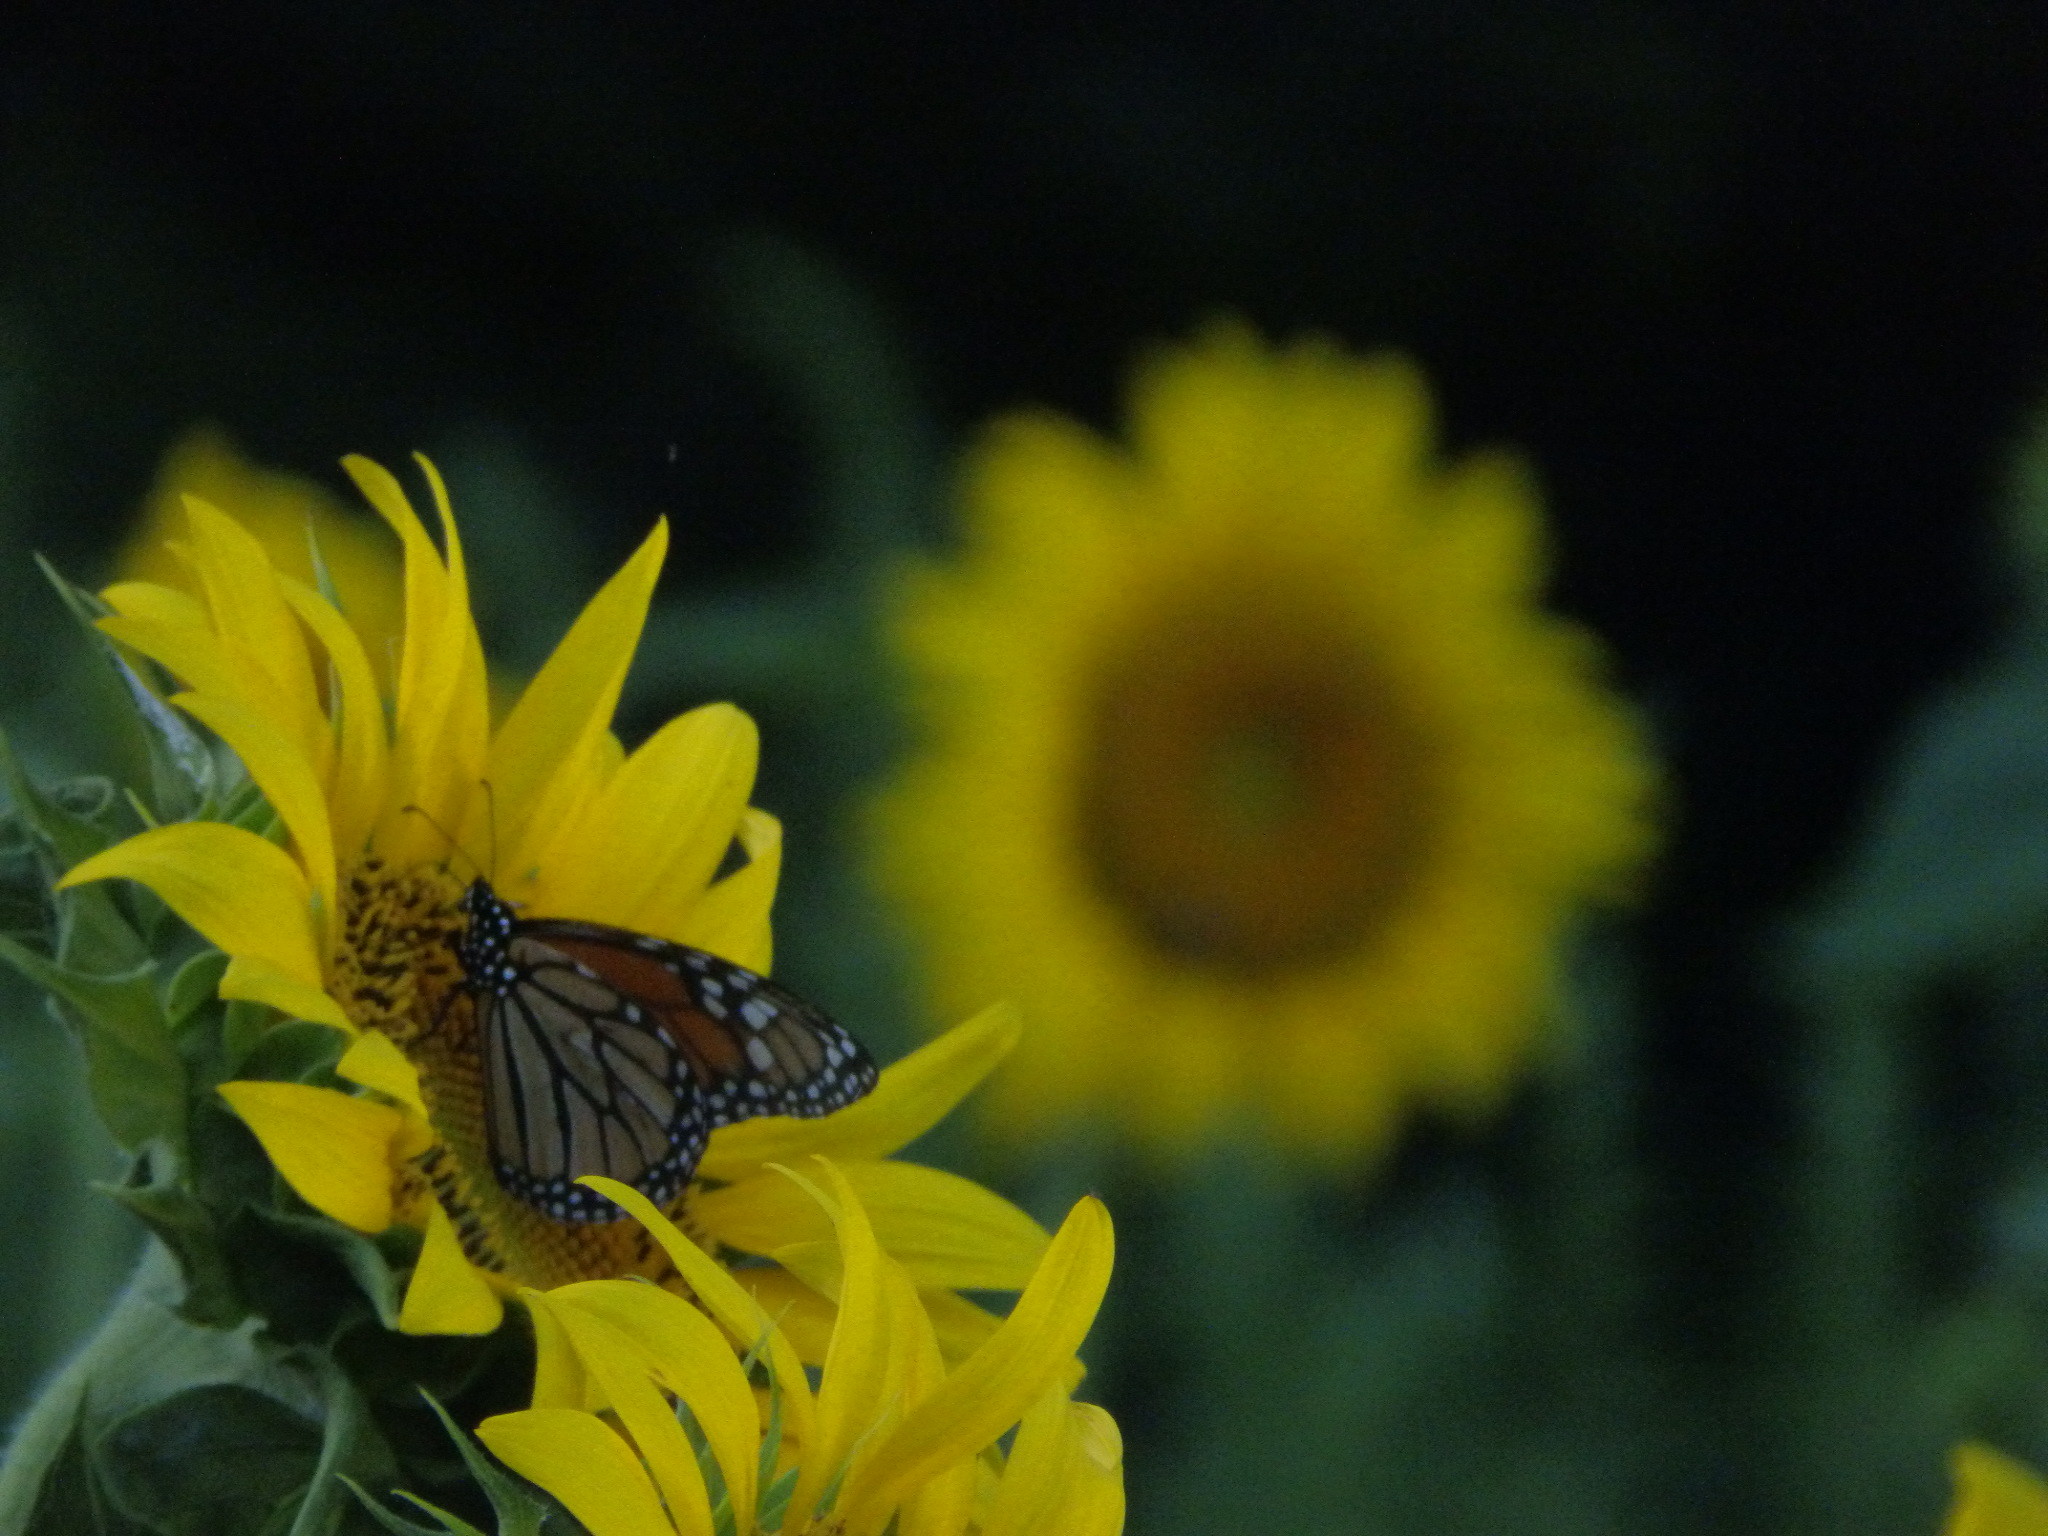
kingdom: Animalia
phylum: Arthropoda
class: Insecta
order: Lepidoptera
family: Nymphalidae
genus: Danaus
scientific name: Danaus plexippus
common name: Monarch
